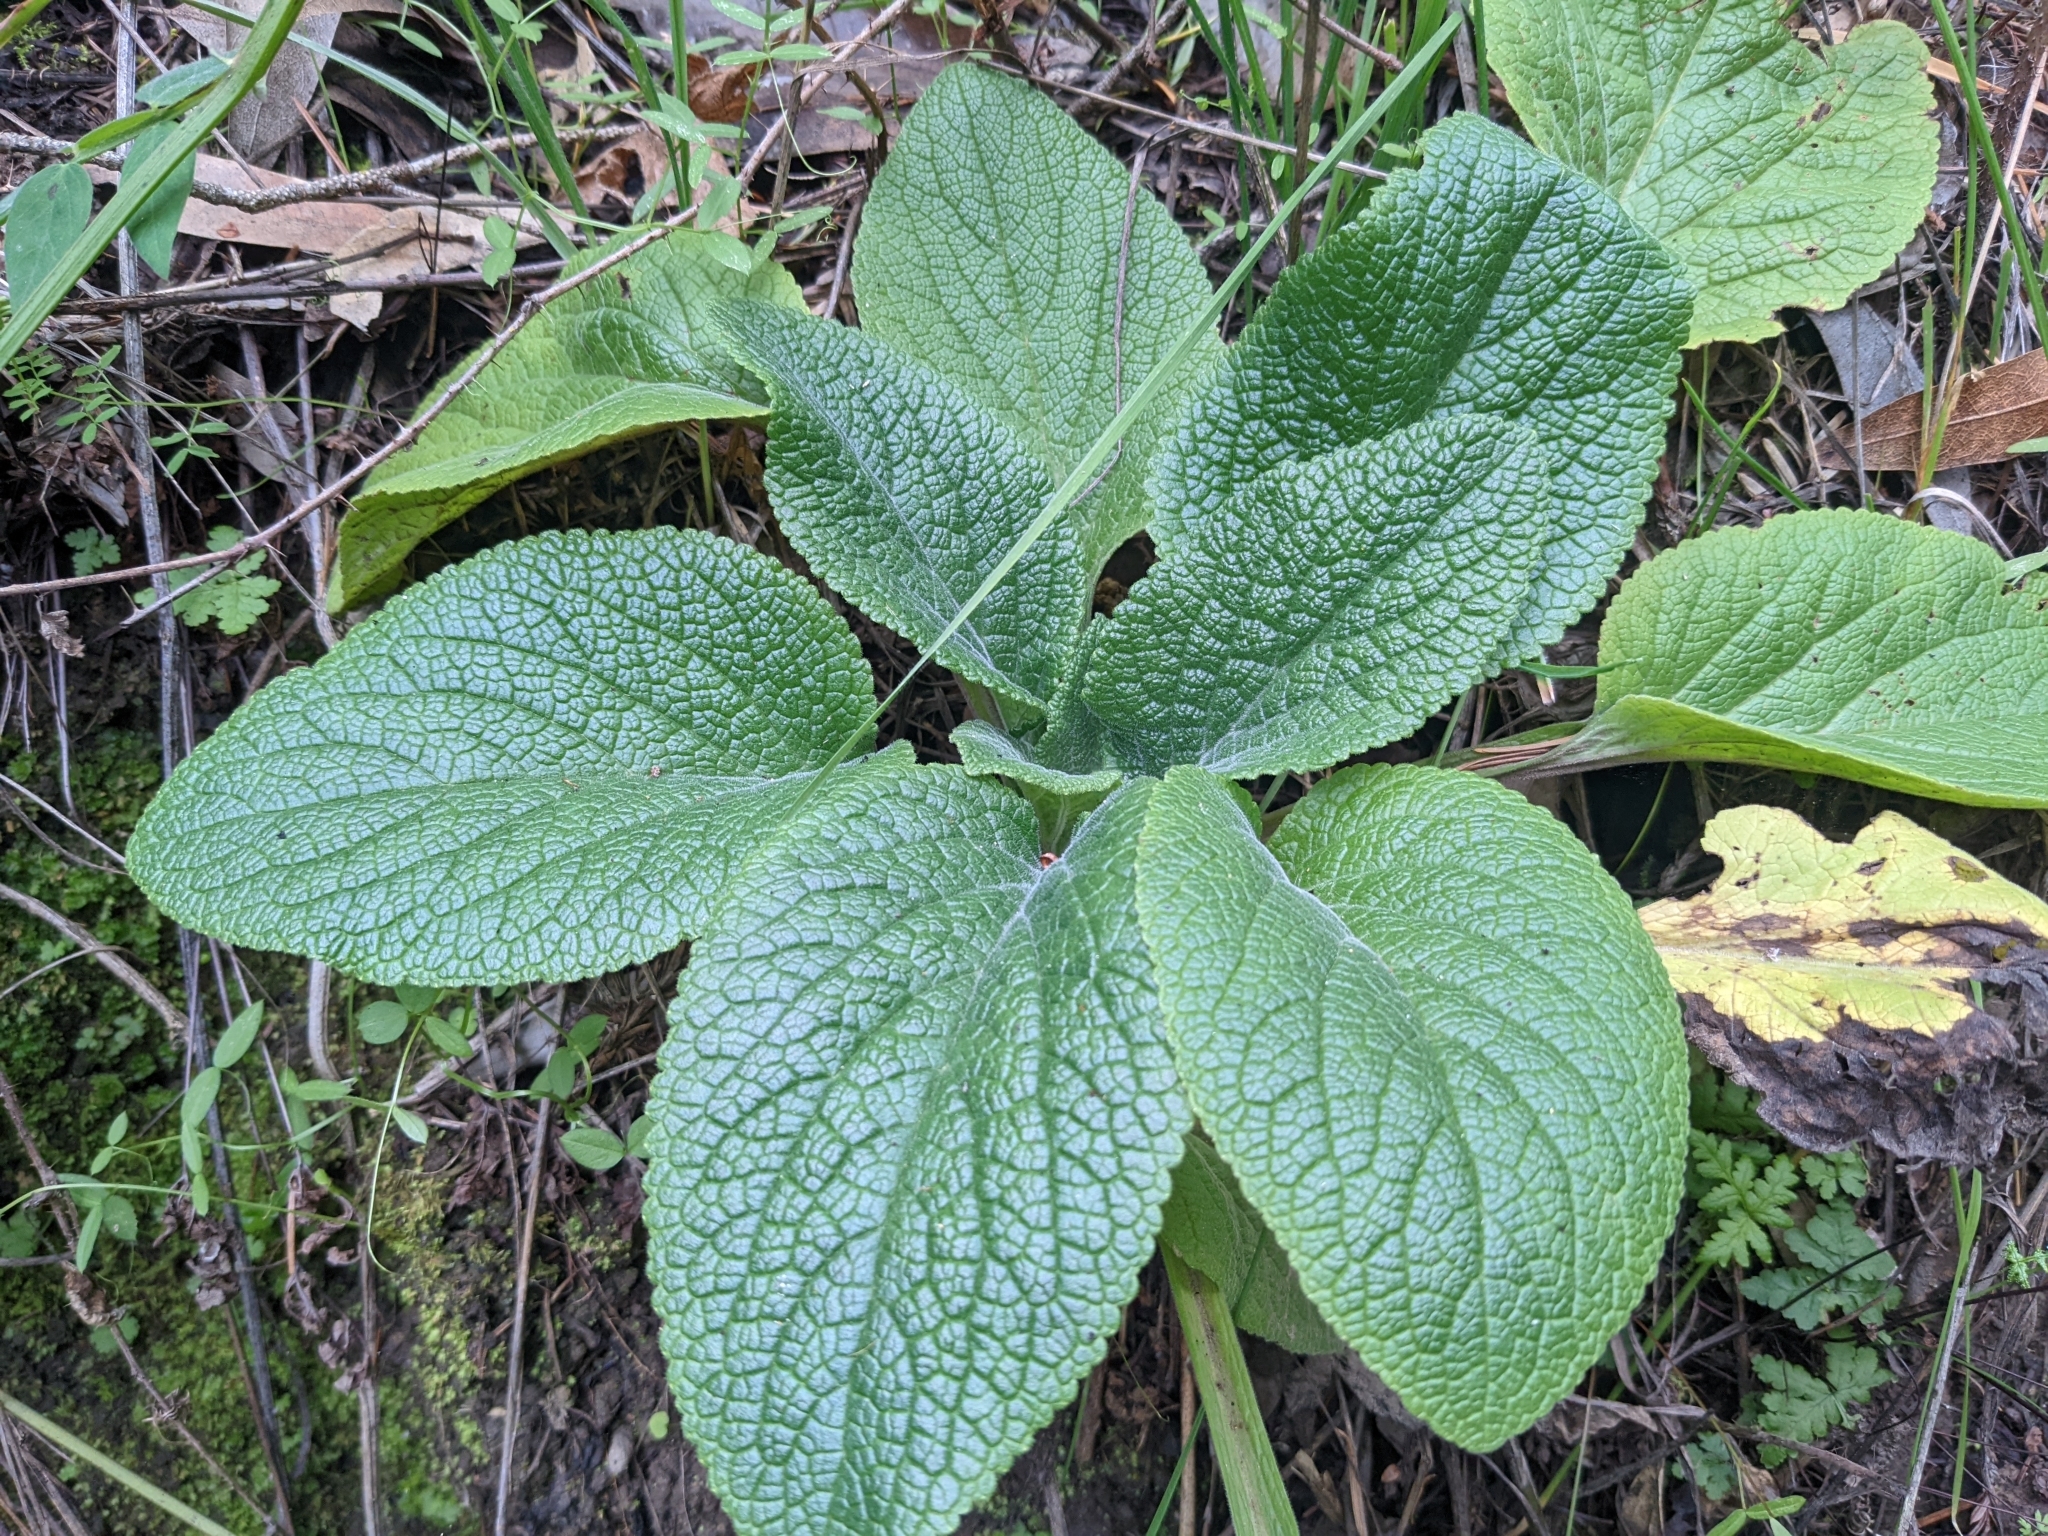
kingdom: Plantae
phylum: Tracheophyta
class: Magnoliopsida
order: Lamiales
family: Plantaginaceae
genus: Digitalis
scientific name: Digitalis purpurea
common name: Foxglove
